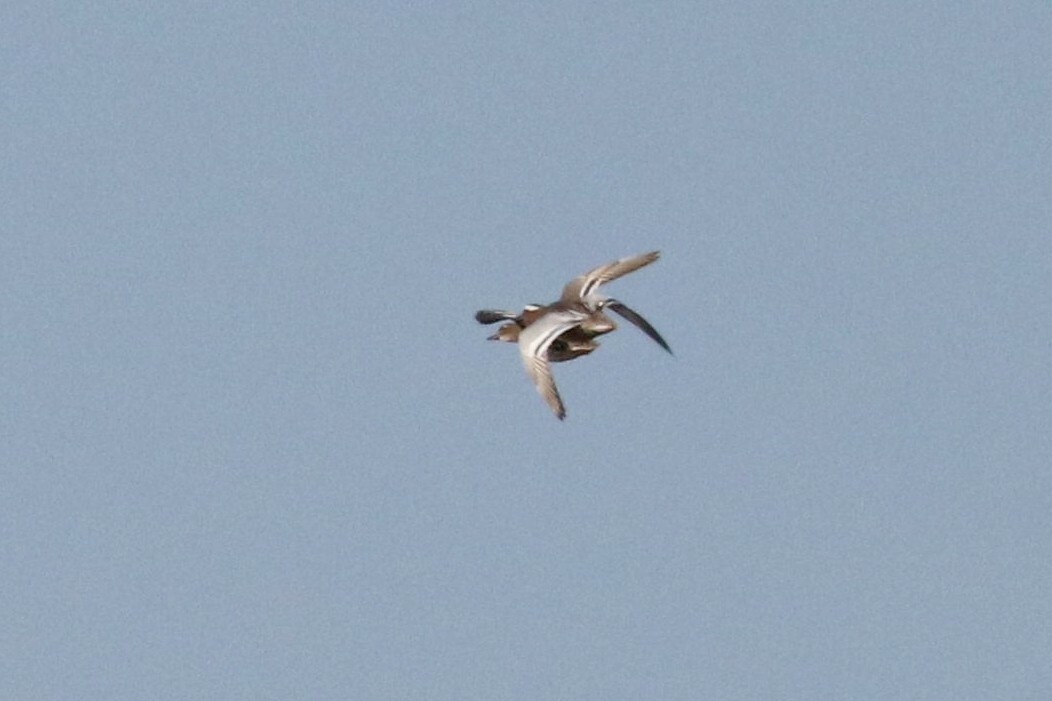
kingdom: Animalia
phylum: Chordata
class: Aves
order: Anseriformes
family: Anatidae
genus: Spatula
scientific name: Spatula querquedula
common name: Garganey
